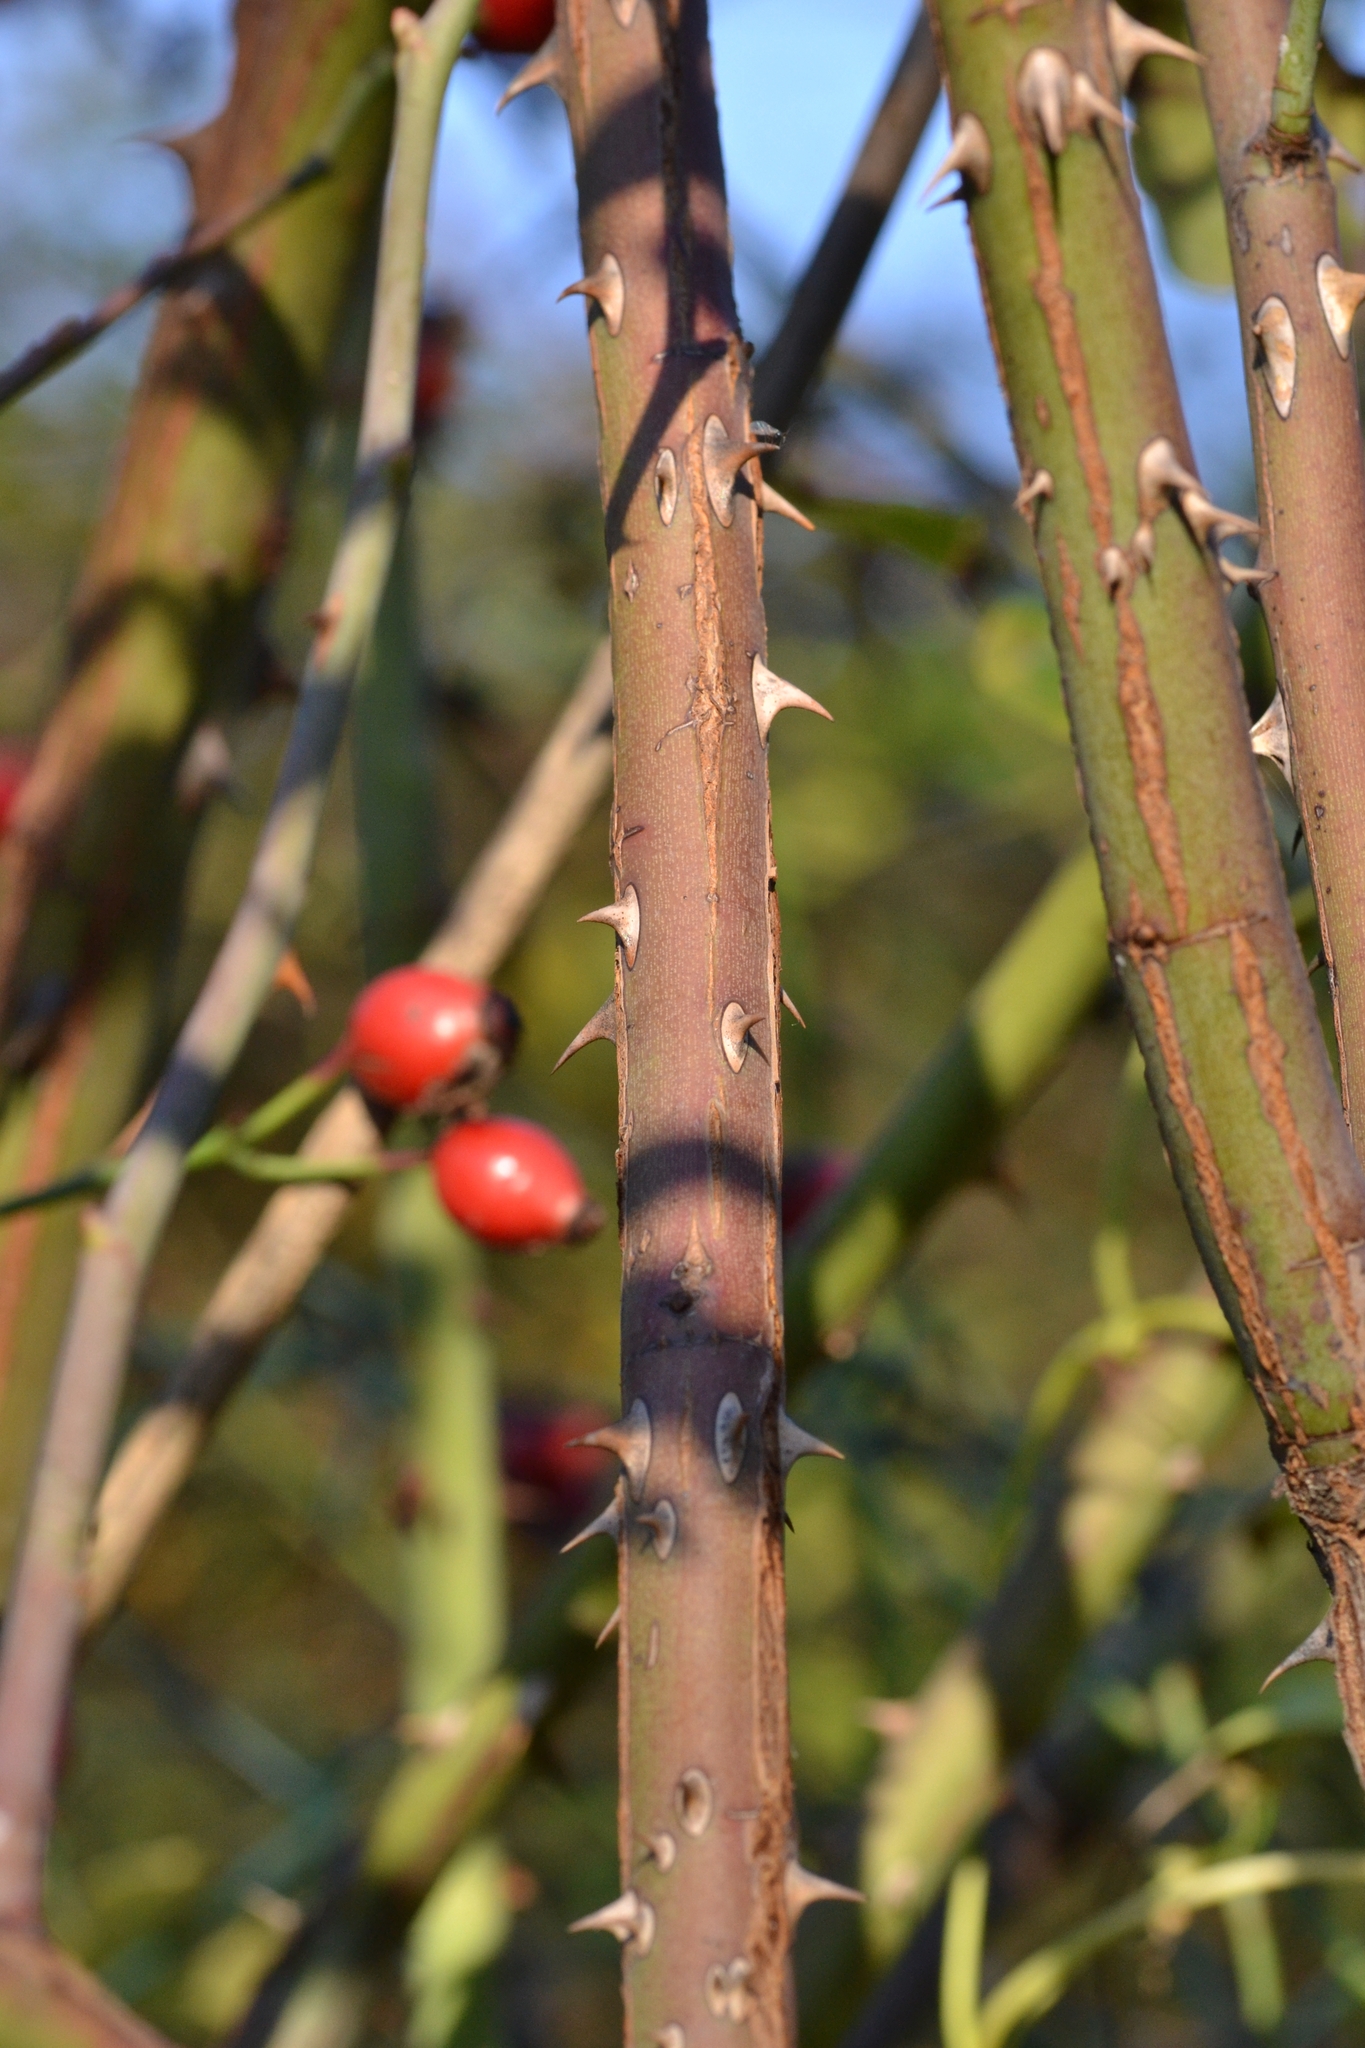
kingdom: Plantae
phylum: Tracheophyta
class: Magnoliopsida
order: Rosales
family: Rosaceae
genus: Rosa
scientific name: Rosa canina
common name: Dog rose
